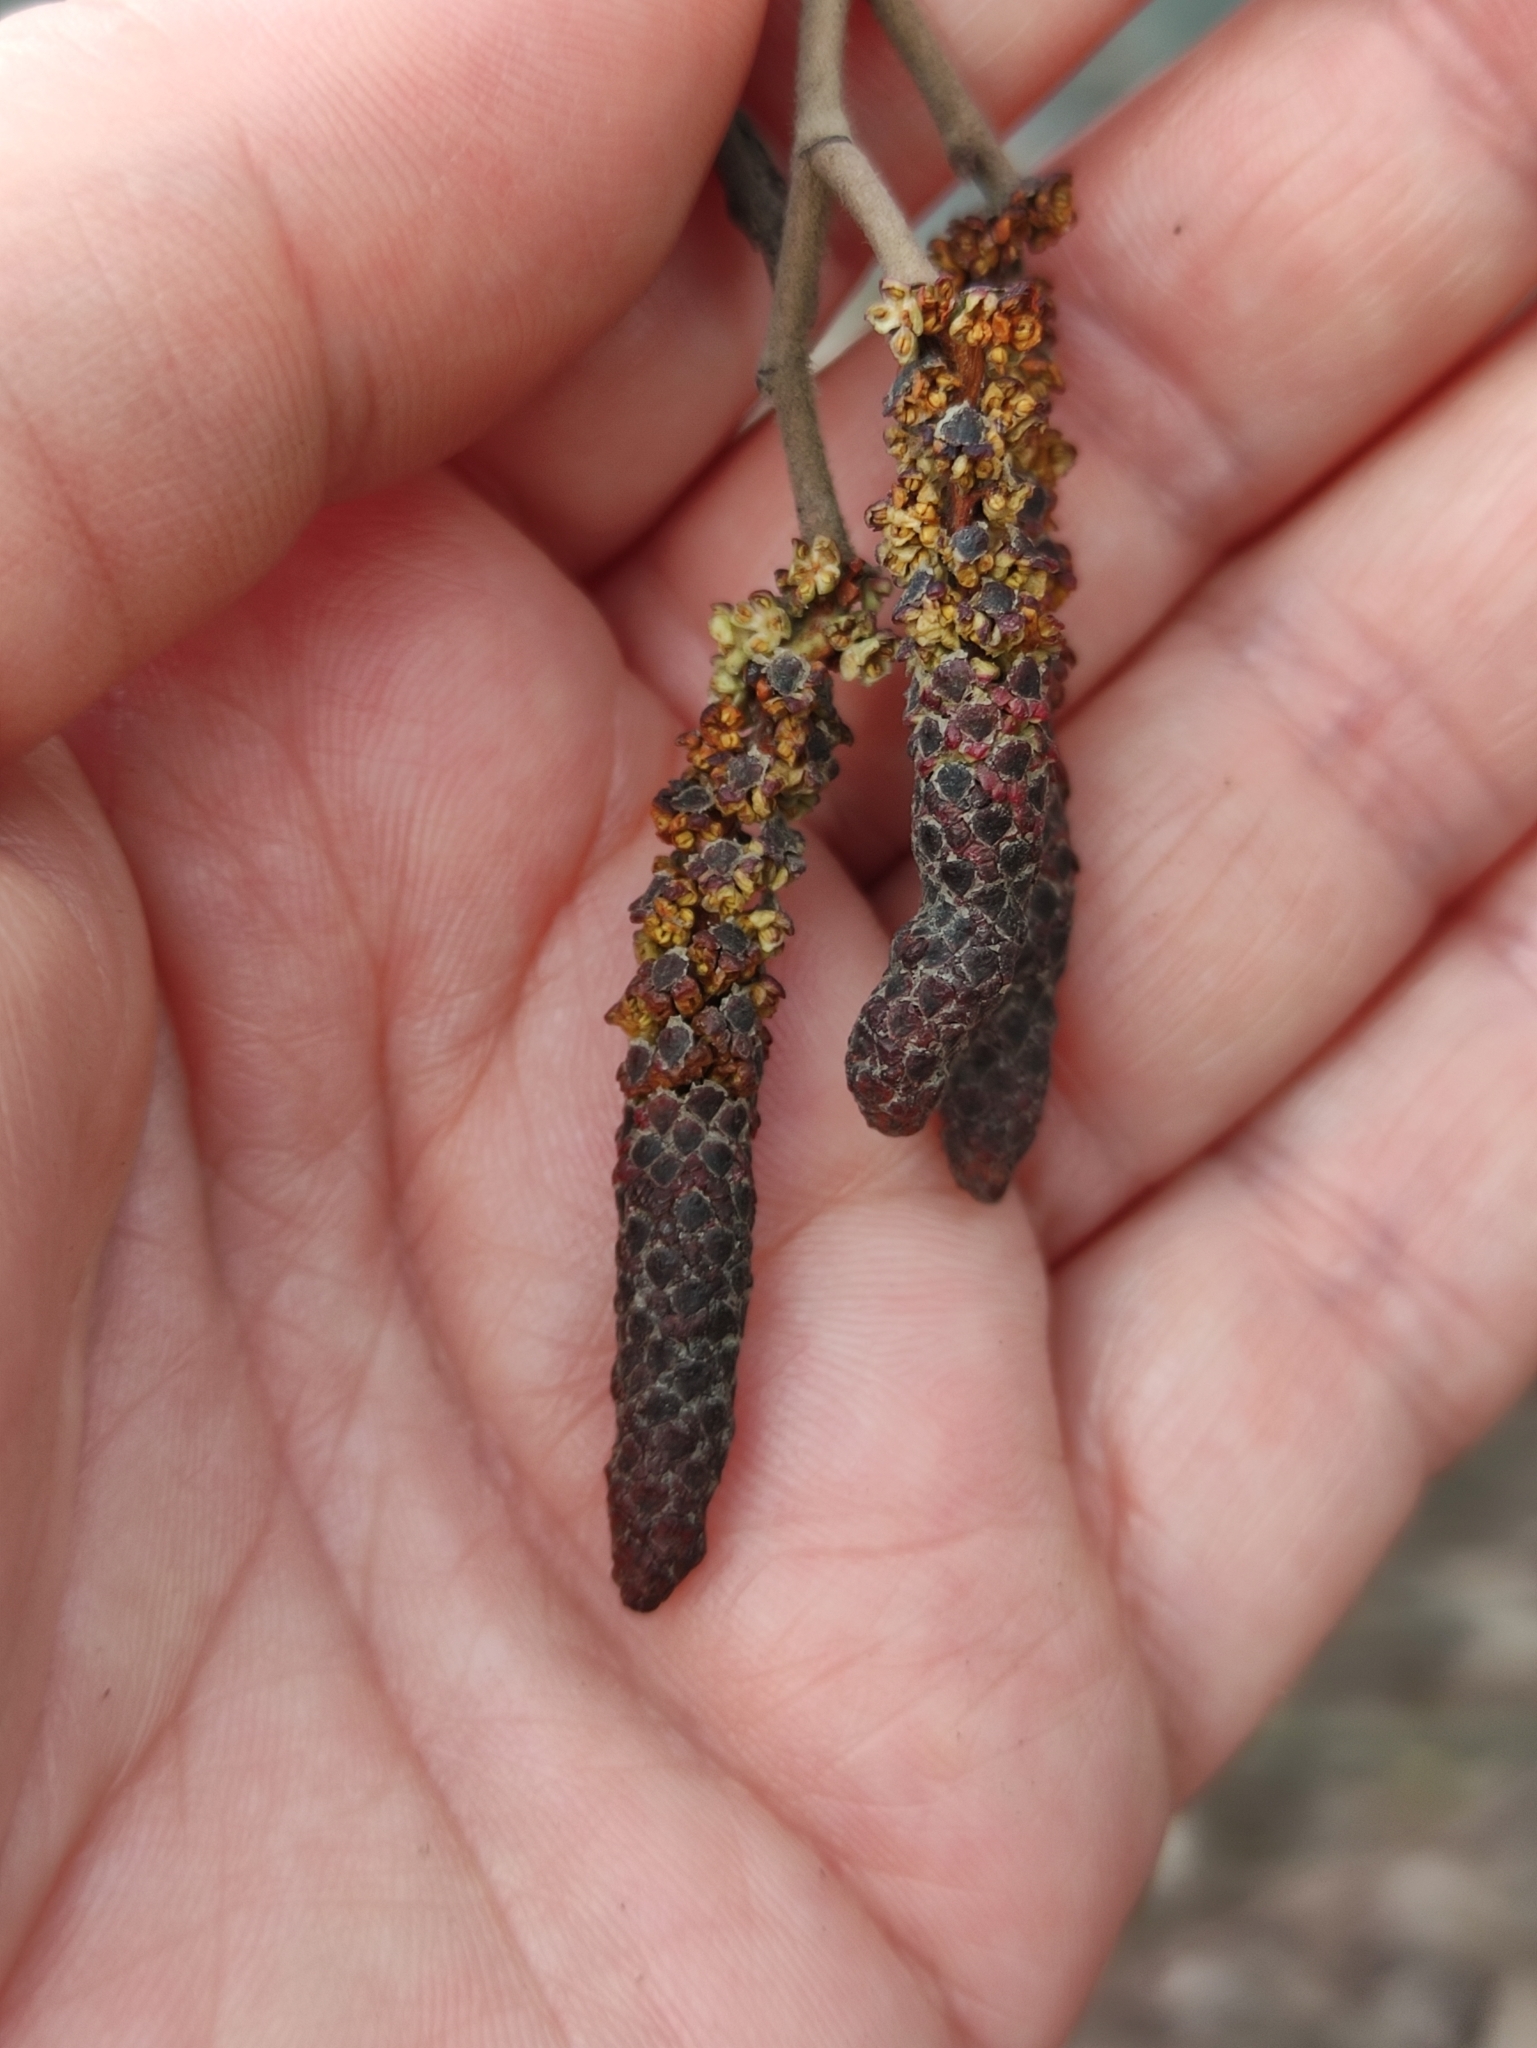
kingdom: Plantae
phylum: Tracheophyta
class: Magnoliopsida
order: Fagales
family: Betulaceae
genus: Alnus
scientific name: Alnus incana
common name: Grey alder
